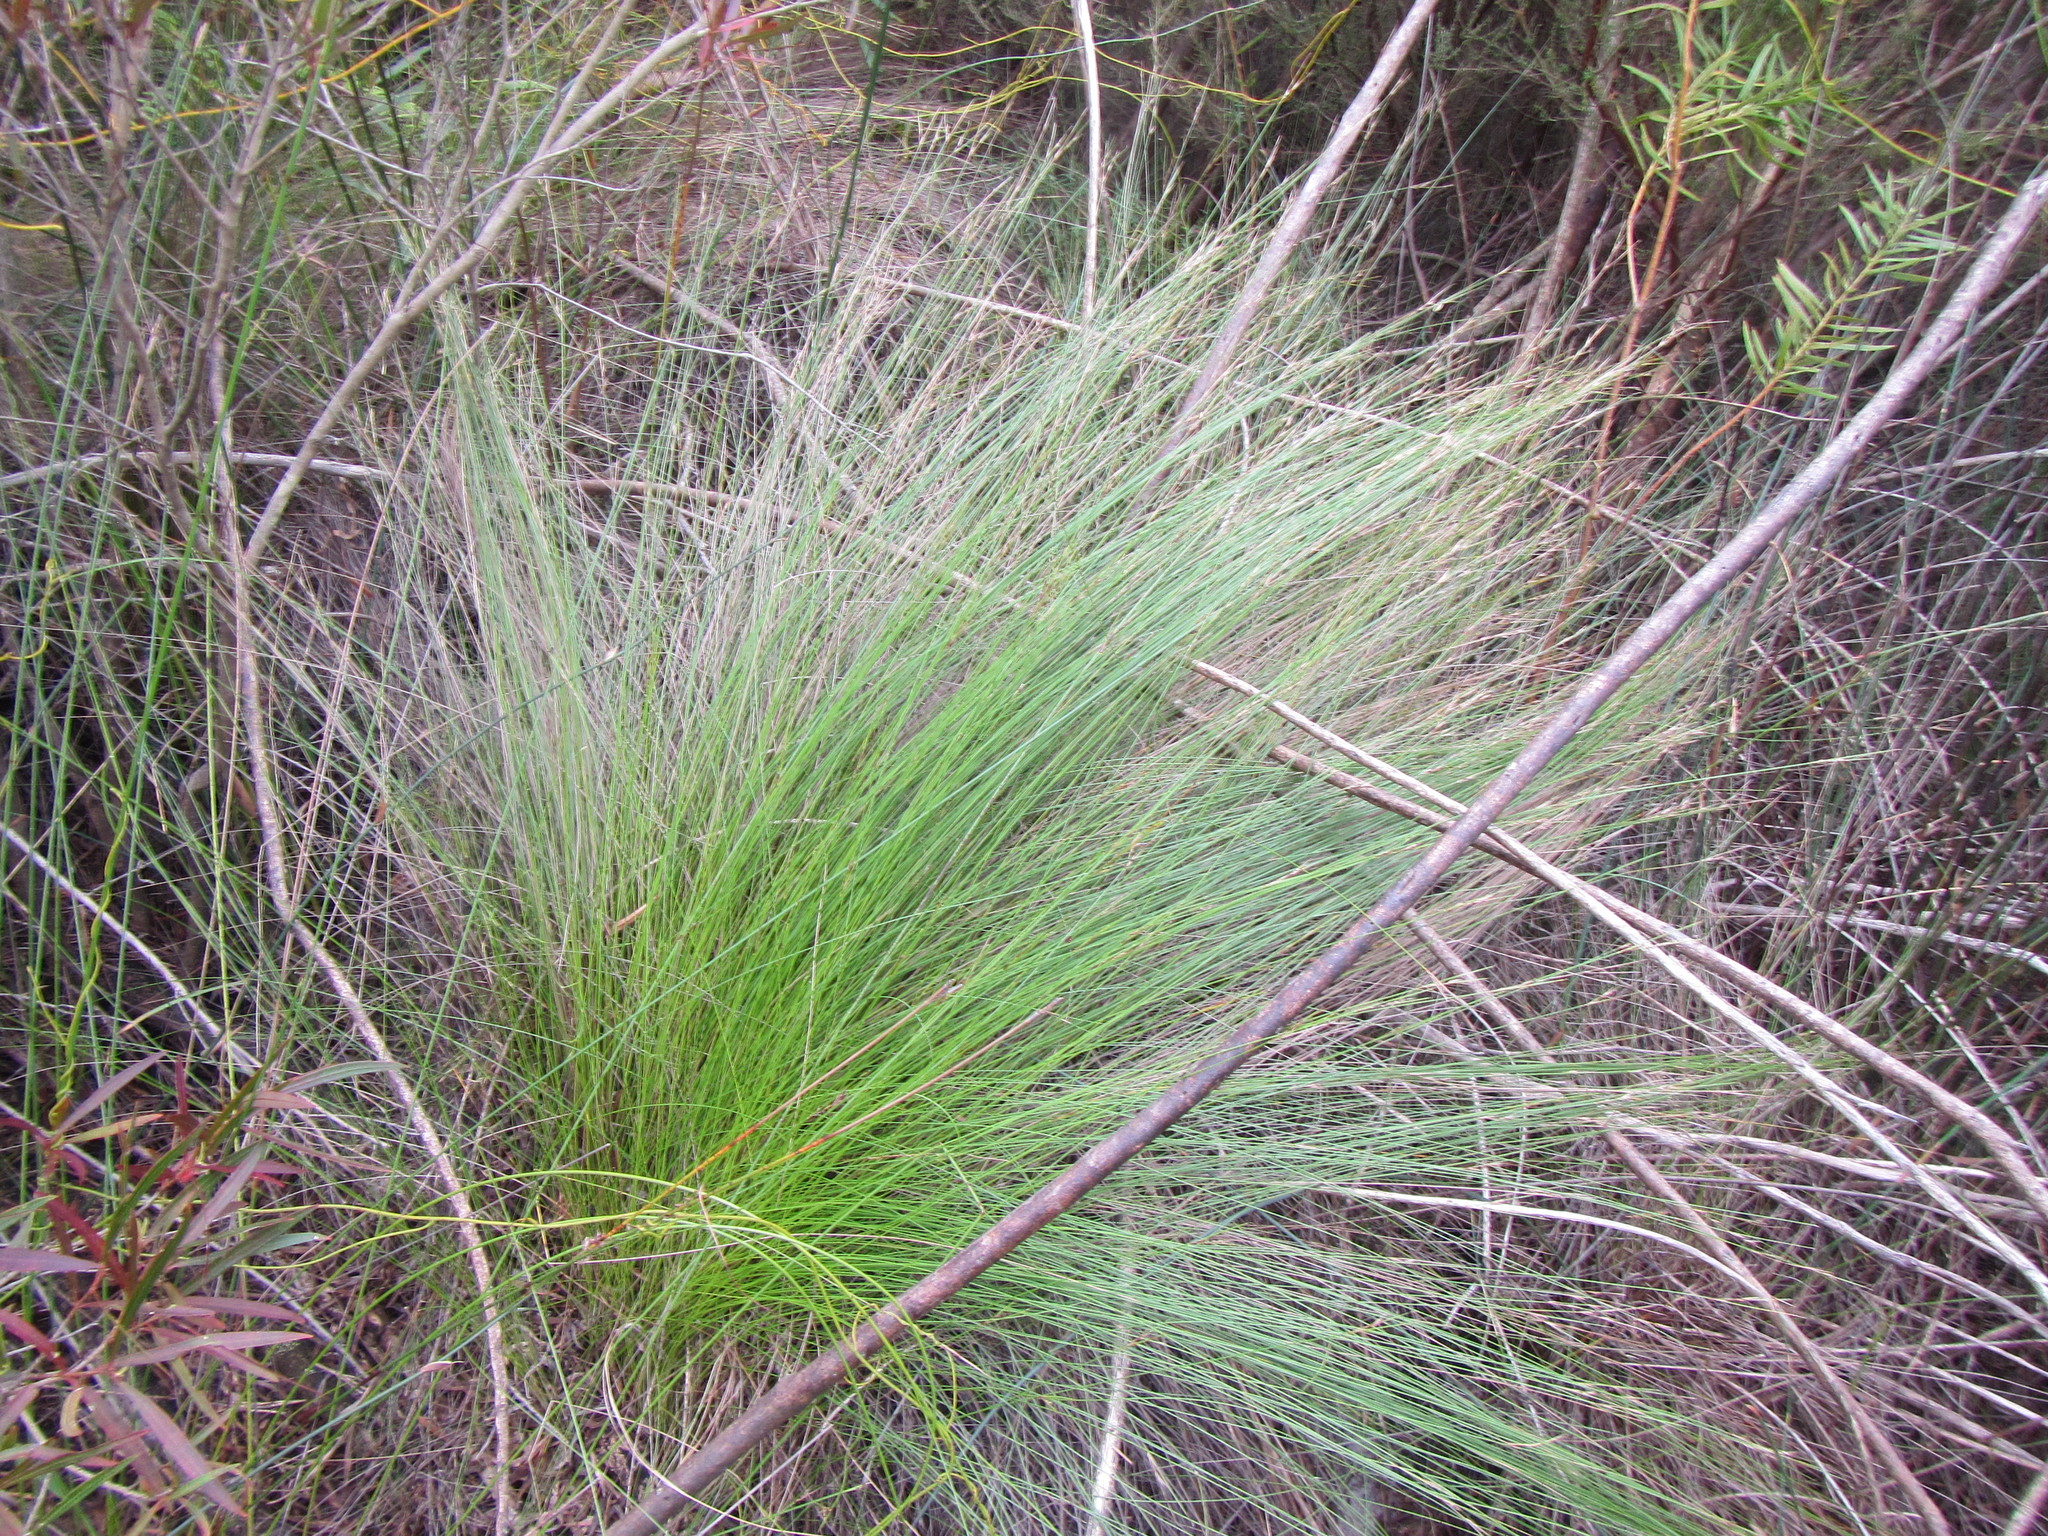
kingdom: Plantae
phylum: Tracheophyta
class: Liliopsida
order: Poales
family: Cyperaceae
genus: Schoenus
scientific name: Schoenus gracillimus
